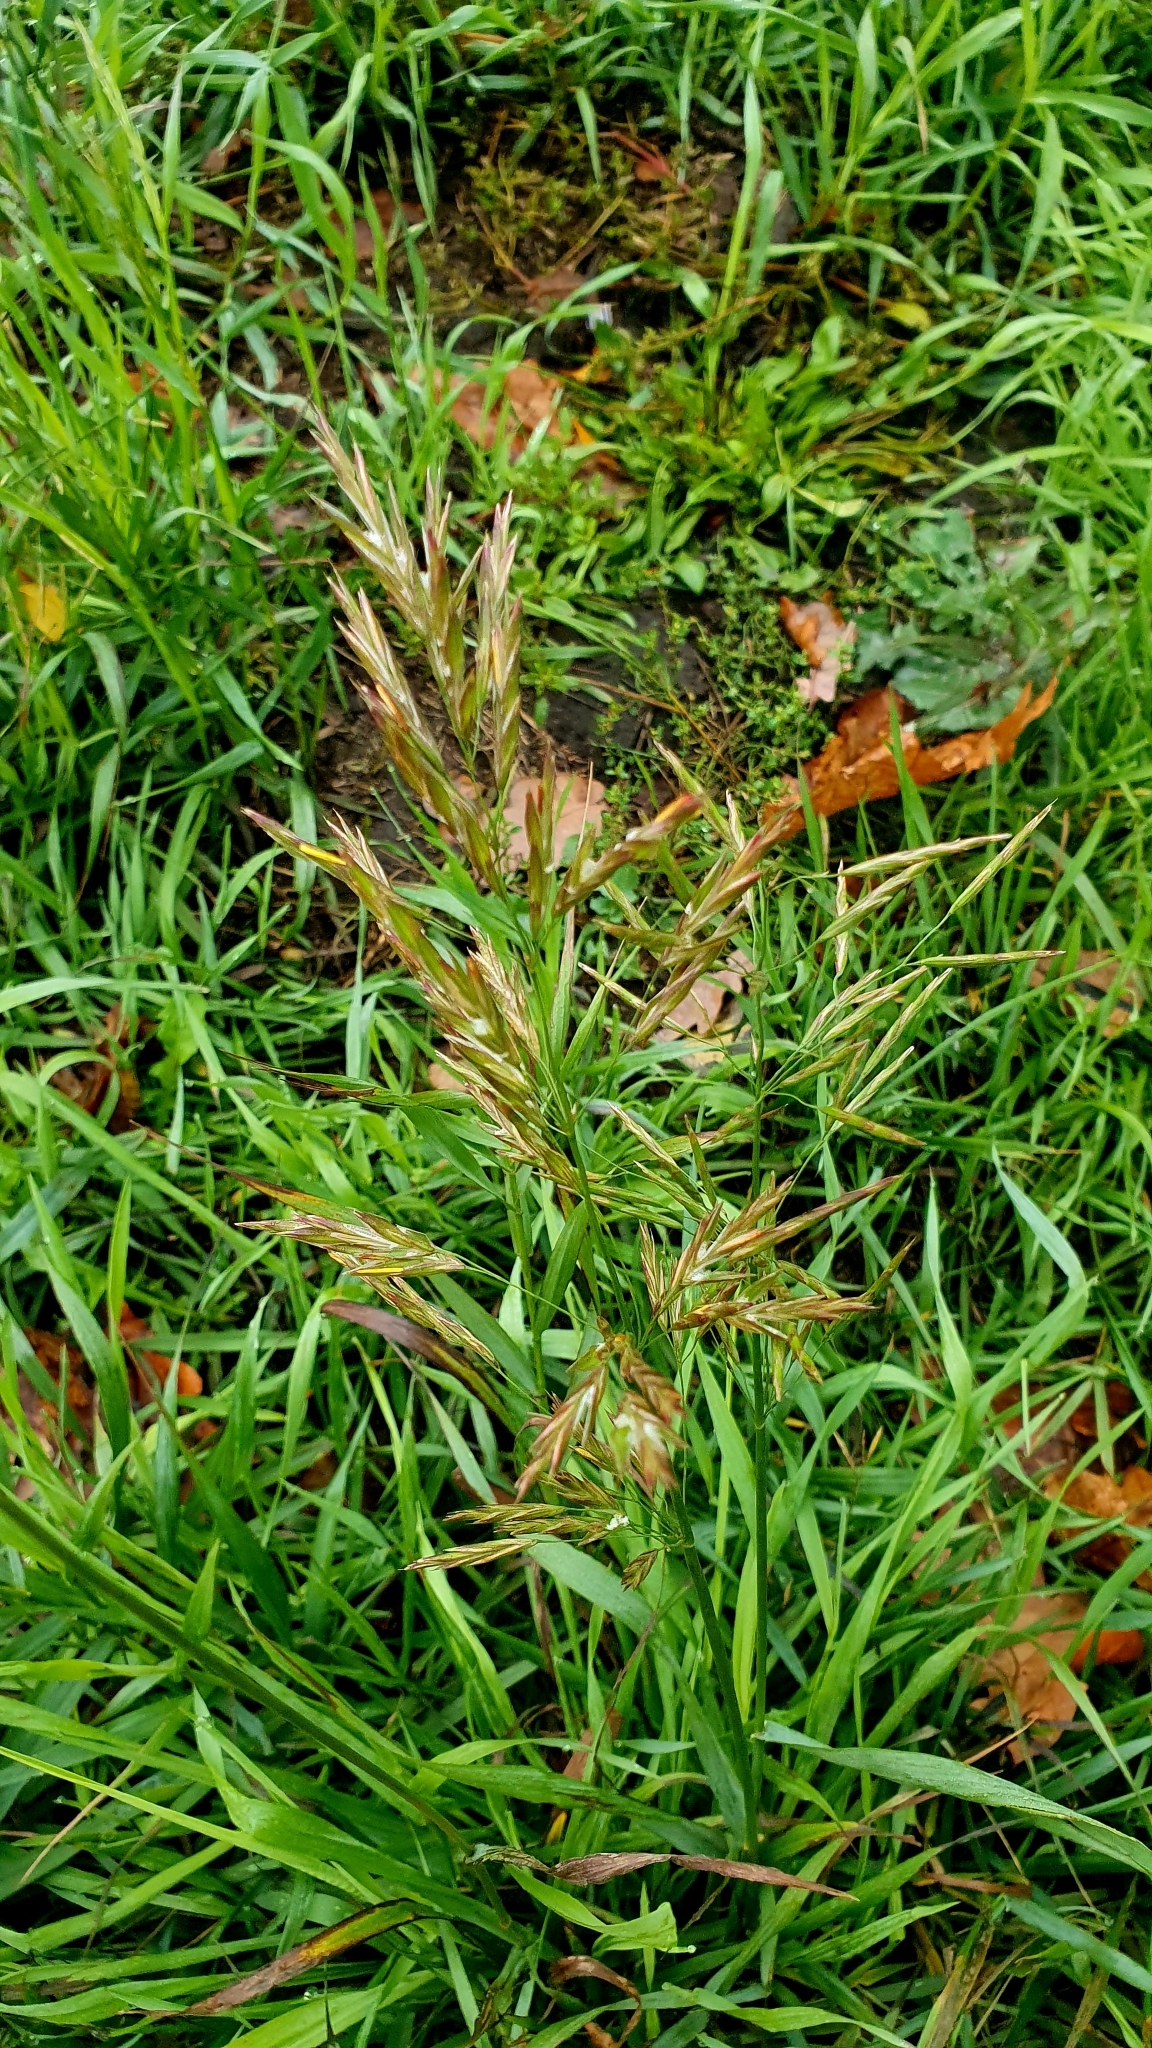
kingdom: Plantae
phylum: Tracheophyta
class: Liliopsida
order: Poales
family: Poaceae
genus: Bromus
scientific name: Bromus inermis
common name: Smooth brome
